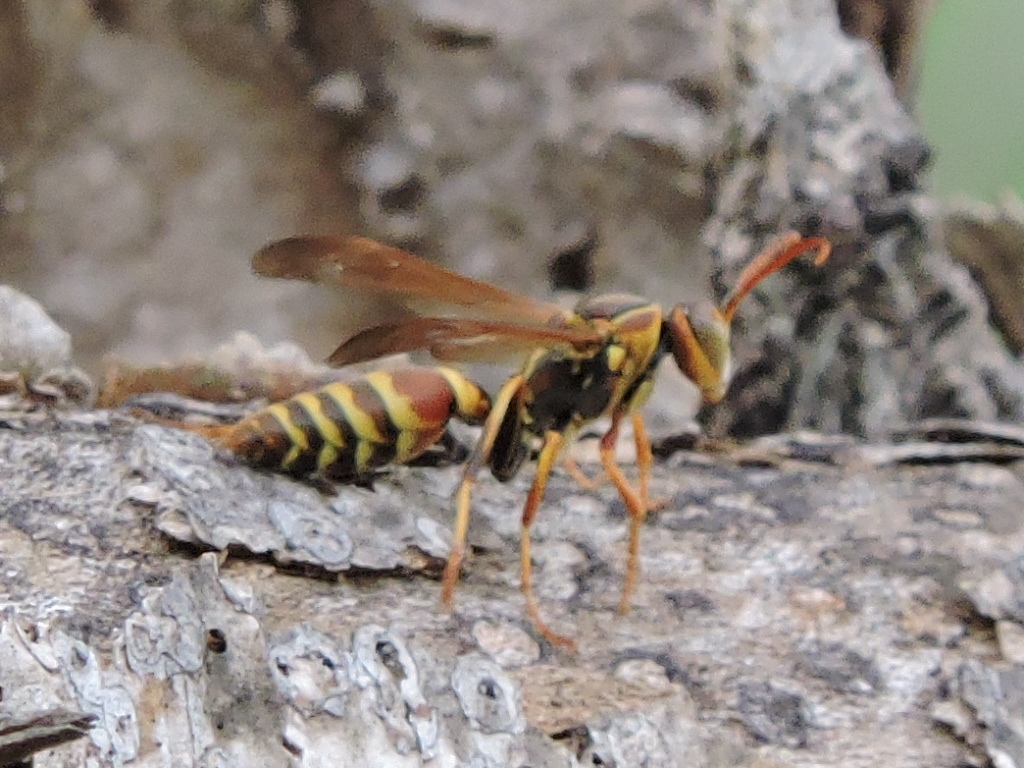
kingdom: Animalia
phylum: Arthropoda
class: Insecta
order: Hymenoptera
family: Eumenidae
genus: Polistes
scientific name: Polistes dorsalis
